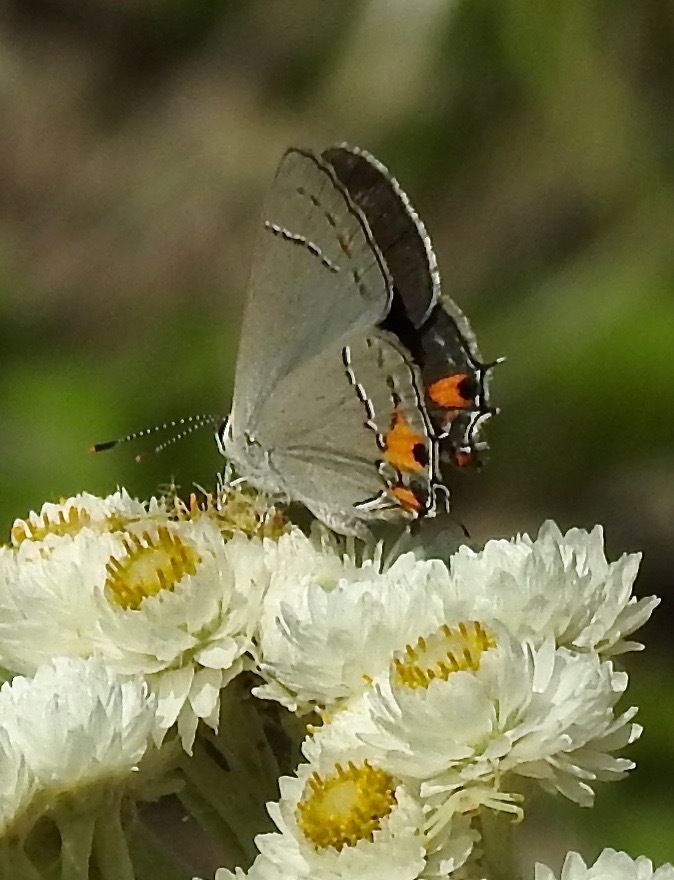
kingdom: Animalia
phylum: Arthropoda
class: Insecta
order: Lepidoptera
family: Lycaenidae
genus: Strymon
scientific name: Strymon melinus
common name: Gray hairstreak
